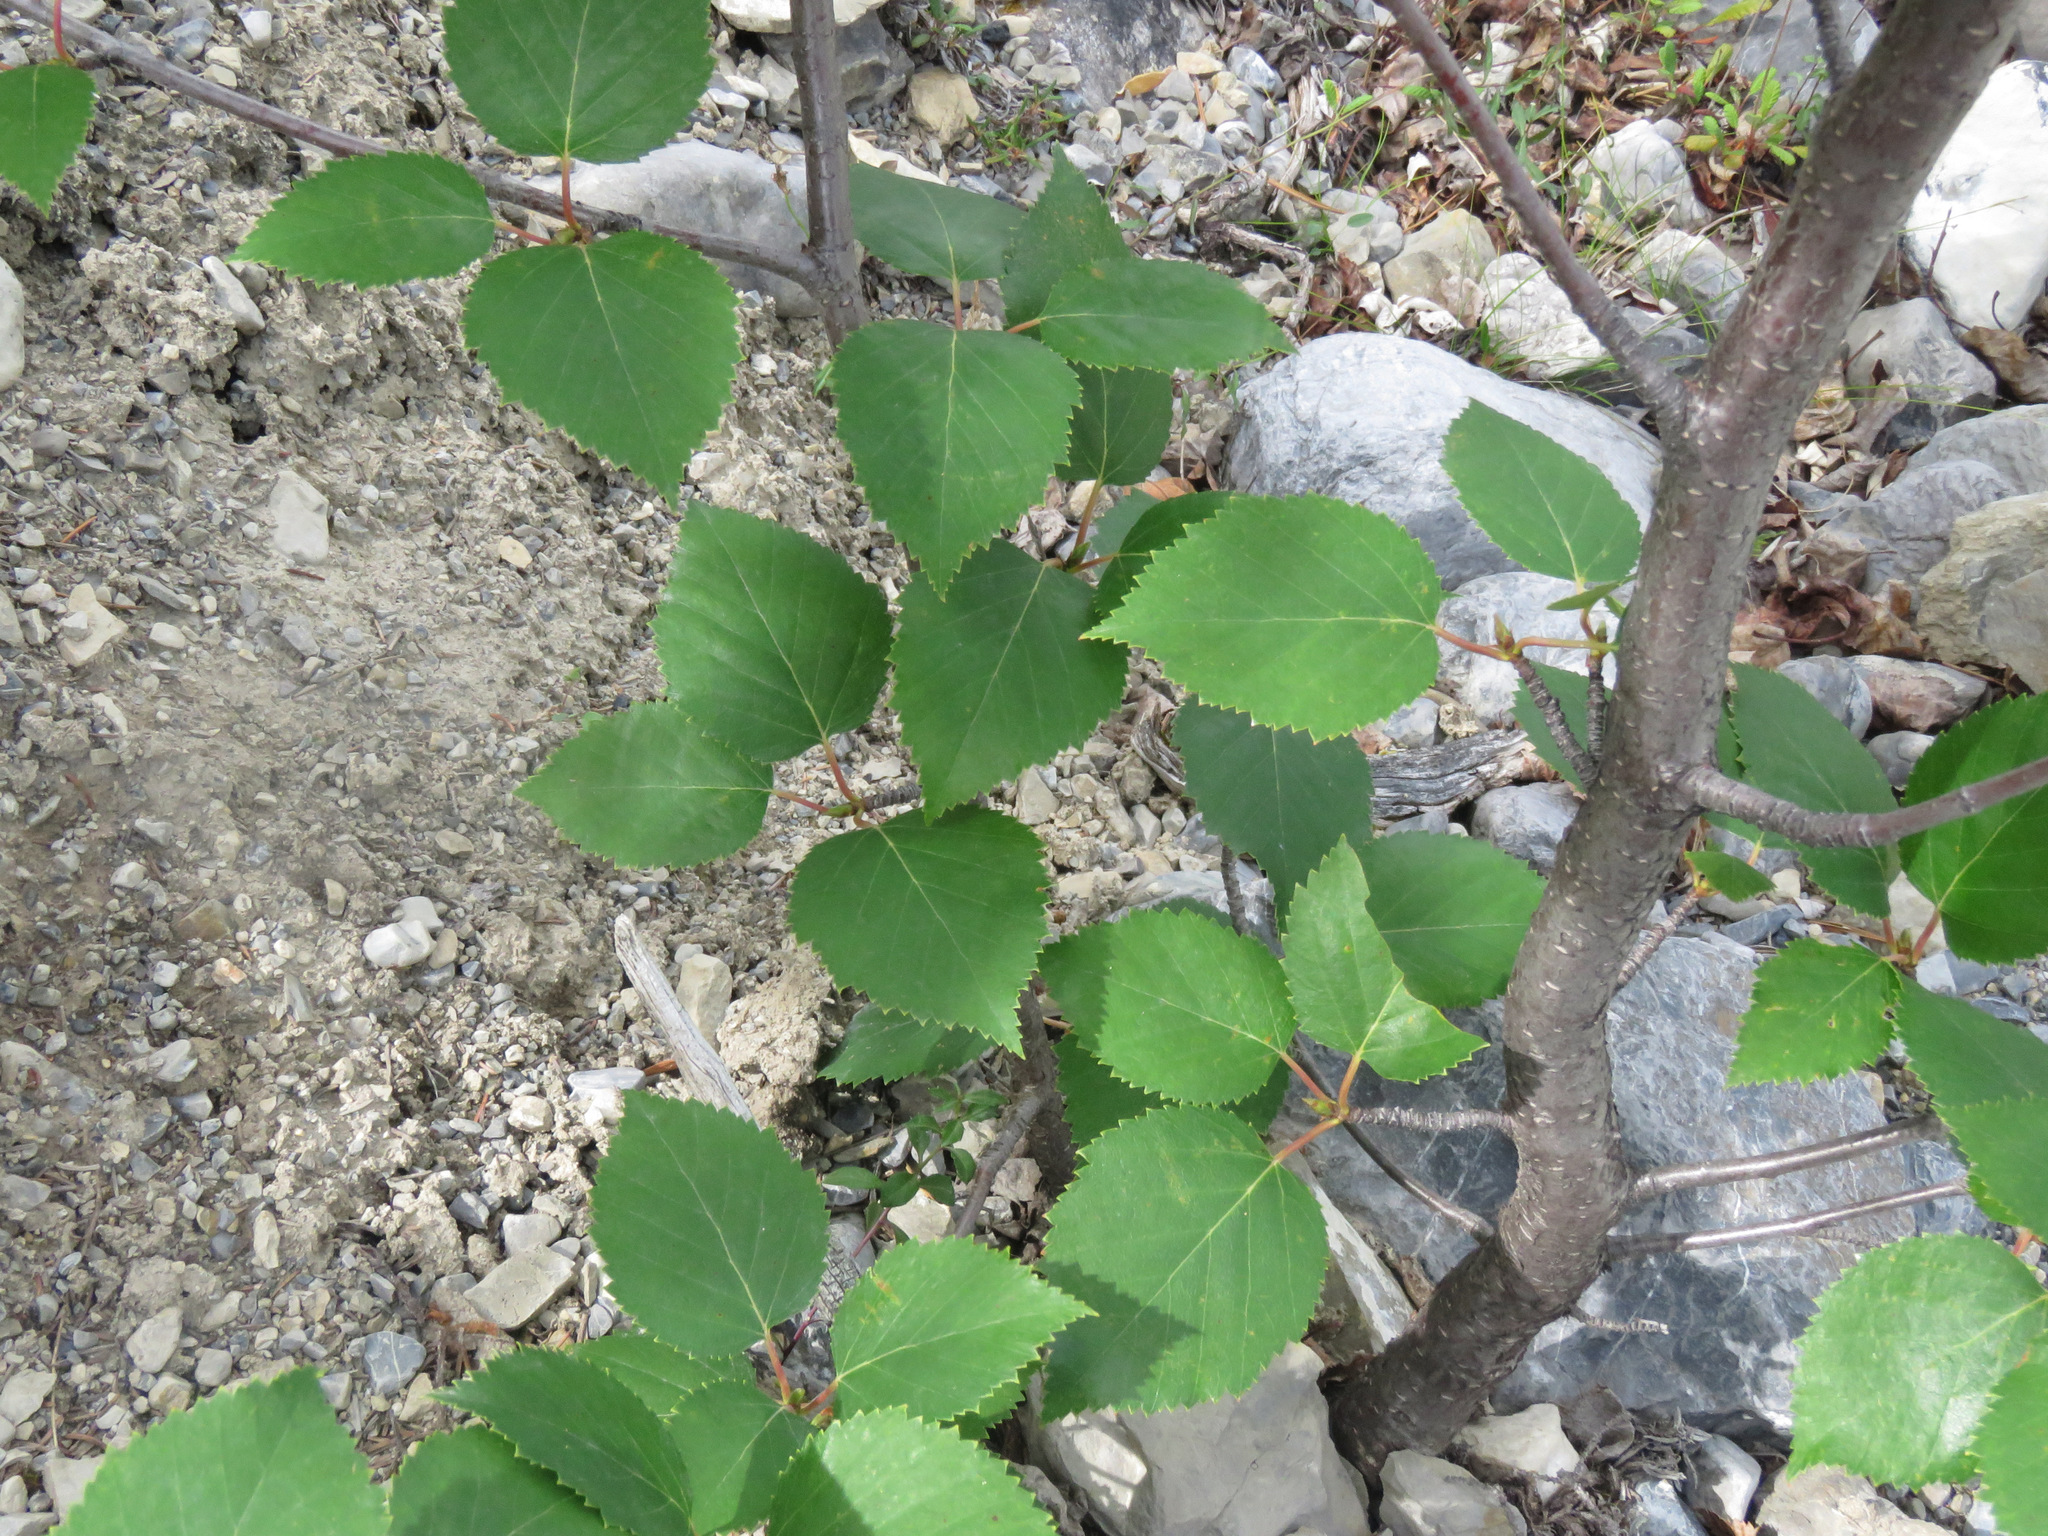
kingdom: Plantae
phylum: Tracheophyta
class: Magnoliopsida
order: Fagales
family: Betulaceae
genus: Betula
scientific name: Betula papyrifera
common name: Paper birch
